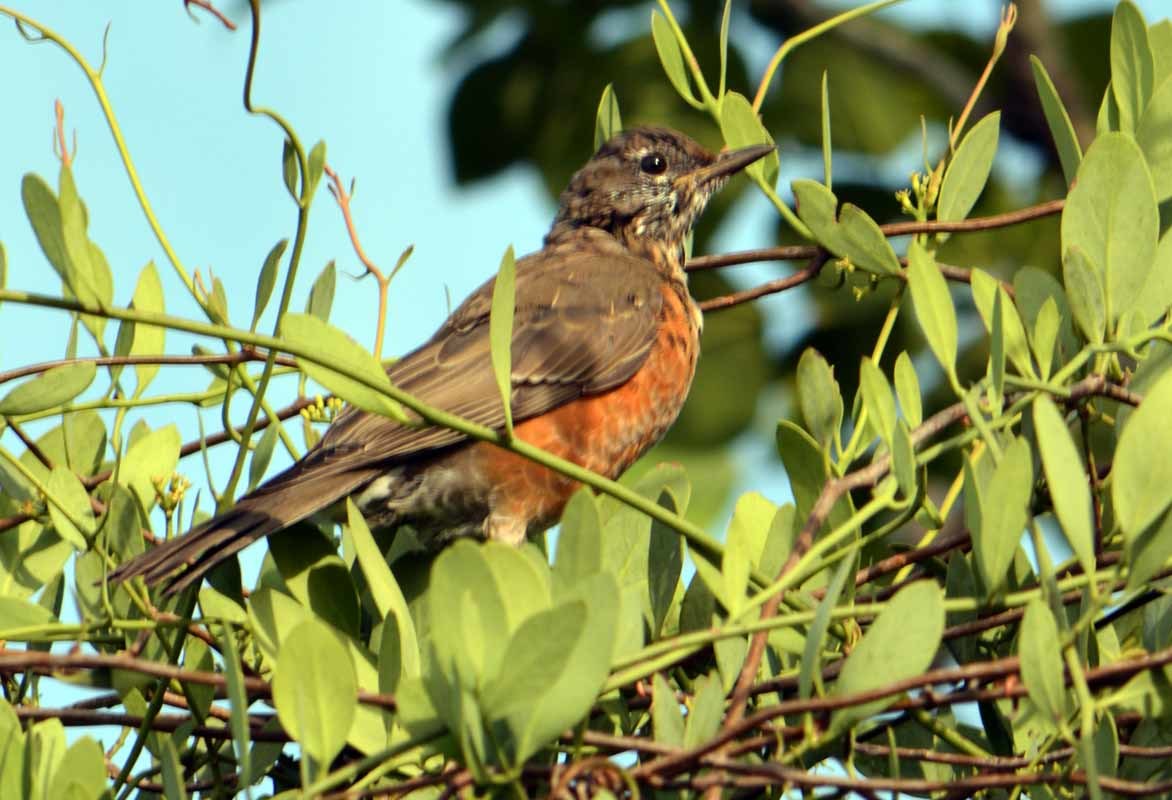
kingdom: Animalia
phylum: Chordata
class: Aves
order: Passeriformes
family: Turdidae
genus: Turdus
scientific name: Turdus migratorius
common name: American robin
